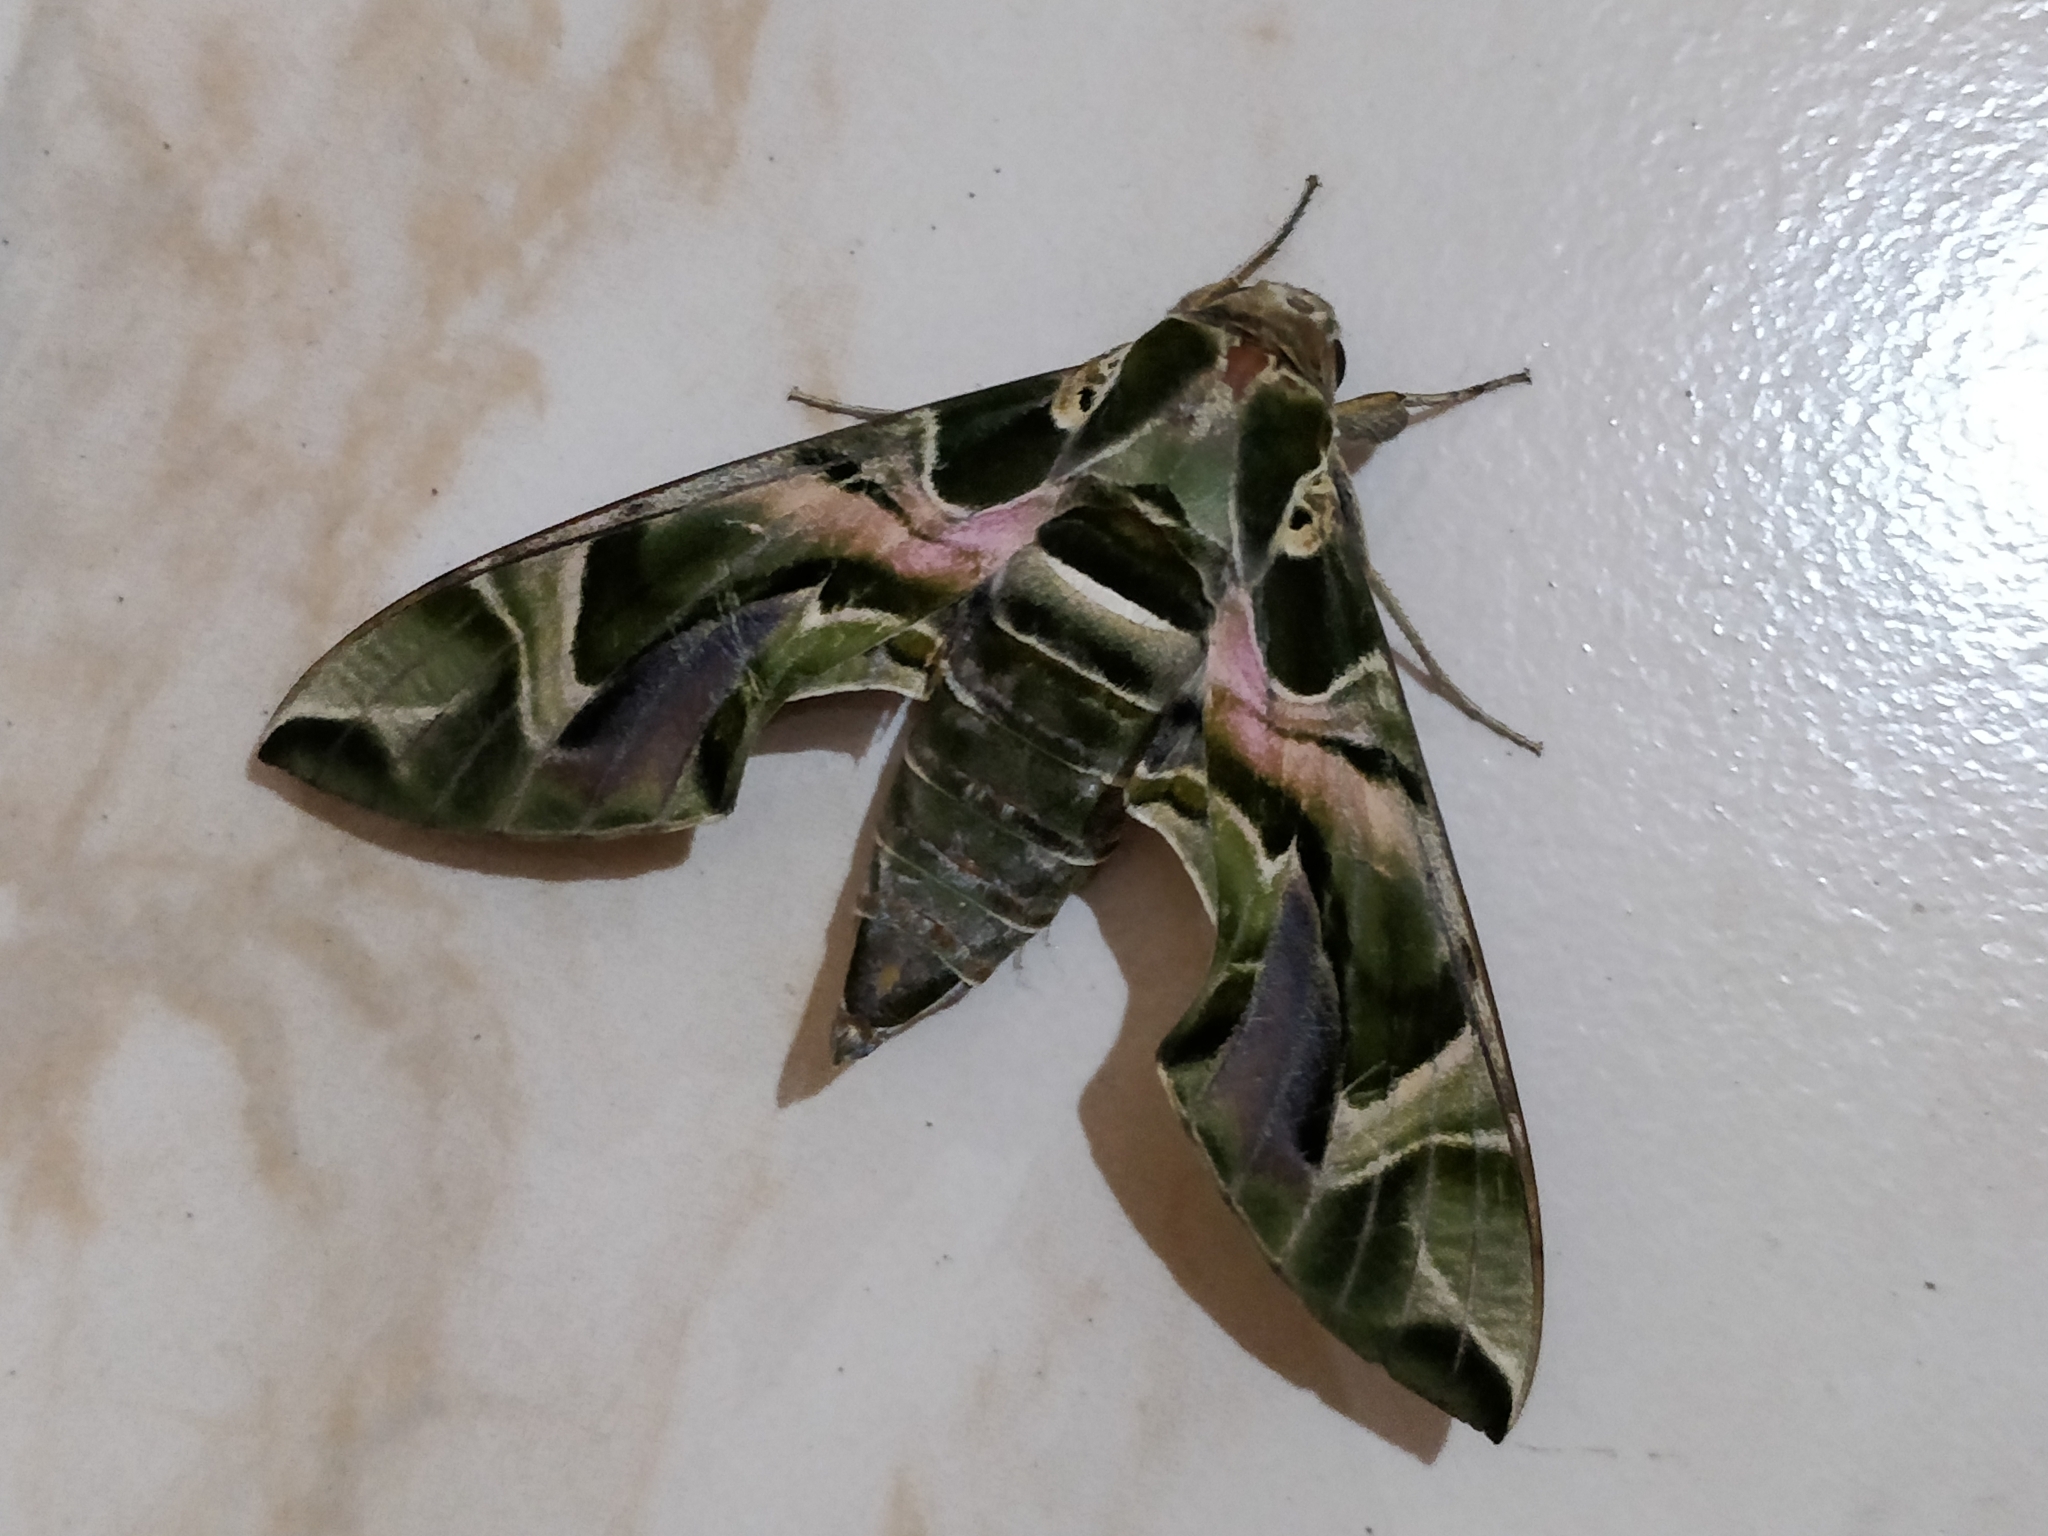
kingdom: Animalia
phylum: Arthropoda
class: Insecta
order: Lepidoptera
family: Sphingidae
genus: Daphnis
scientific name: Daphnis nerii
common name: Oleander hawk-moth
